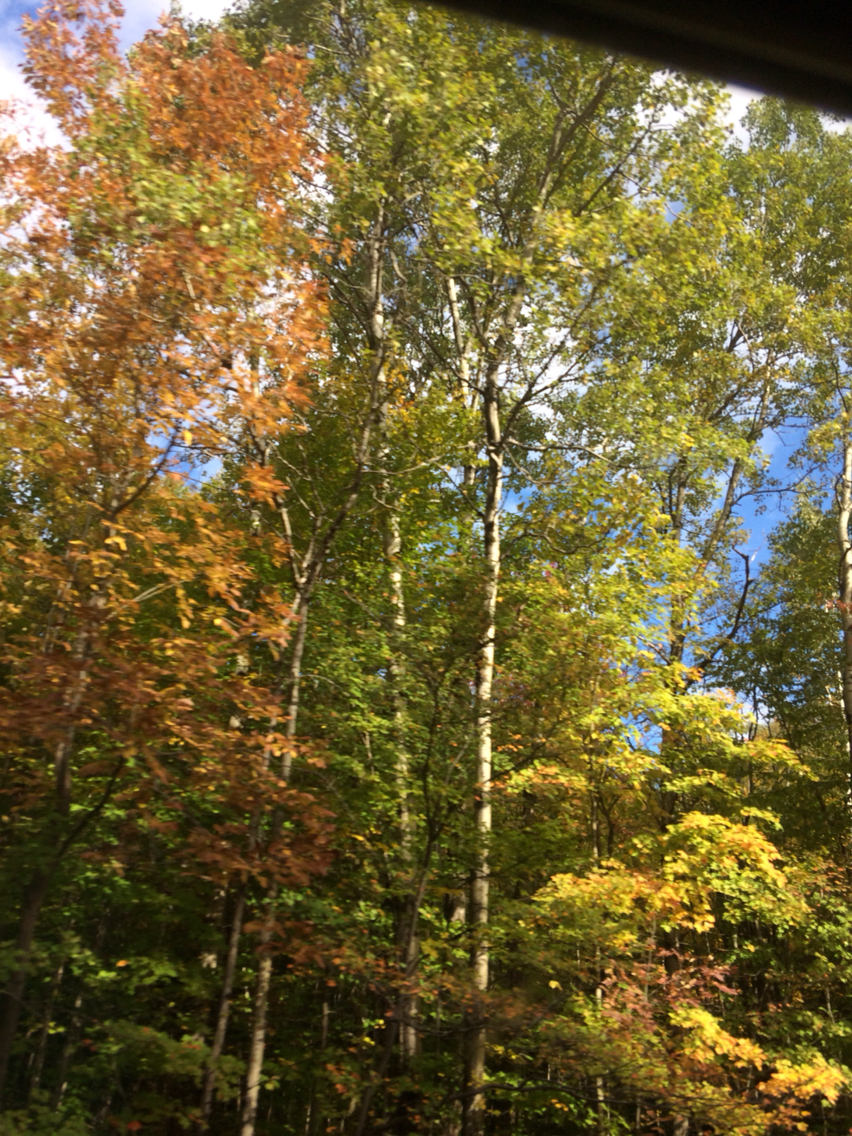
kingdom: Plantae
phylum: Tracheophyta
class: Magnoliopsida
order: Malpighiales
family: Salicaceae
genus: Populus
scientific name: Populus tremuloides
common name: Quaking aspen
